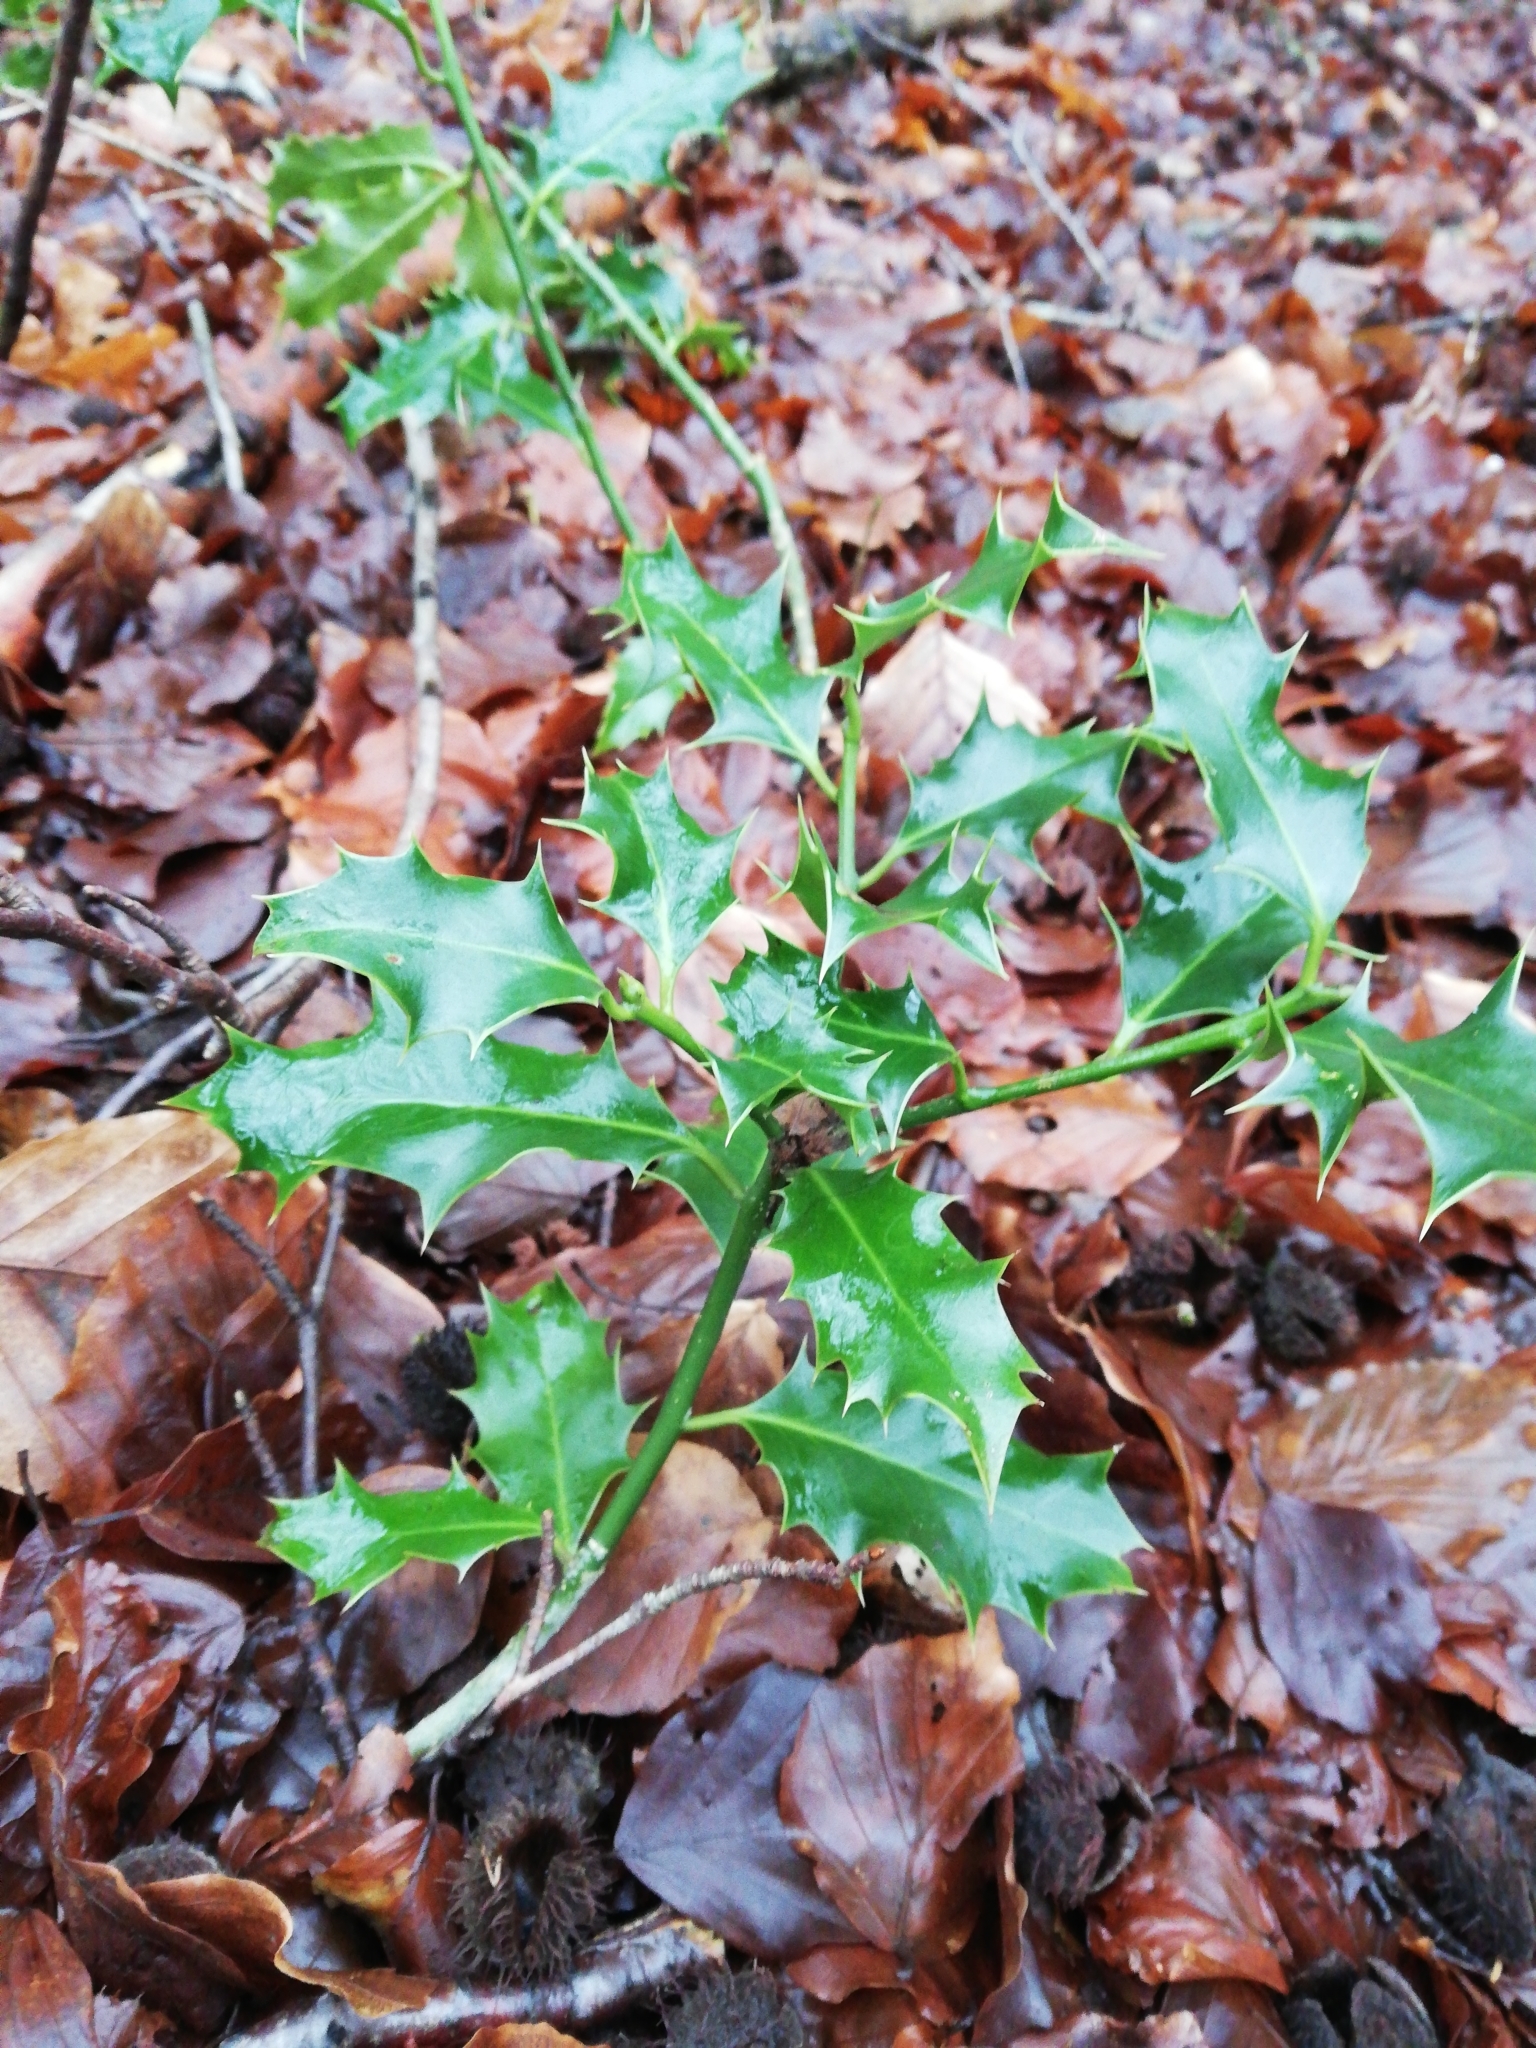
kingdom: Plantae
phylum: Tracheophyta
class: Magnoliopsida
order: Aquifoliales
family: Aquifoliaceae
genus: Ilex
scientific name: Ilex aquifolium
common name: English holly
